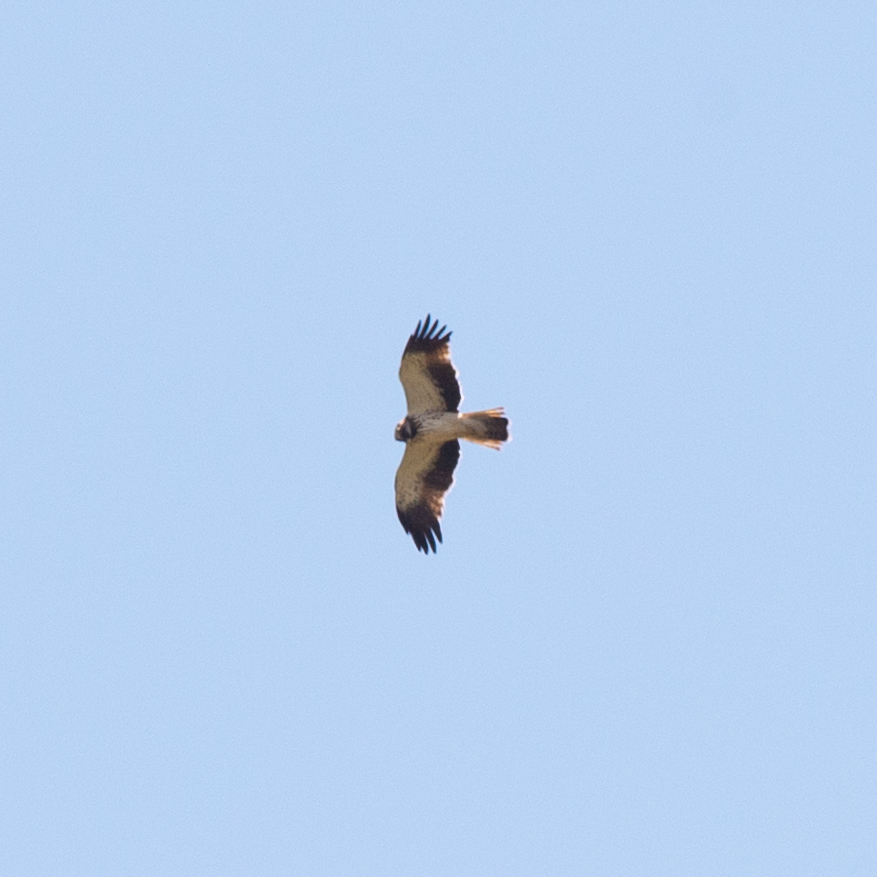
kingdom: Animalia
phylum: Chordata
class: Aves
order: Accipitriformes
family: Accipitridae
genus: Hieraaetus
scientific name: Hieraaetus pennatus
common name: Booted eagle
